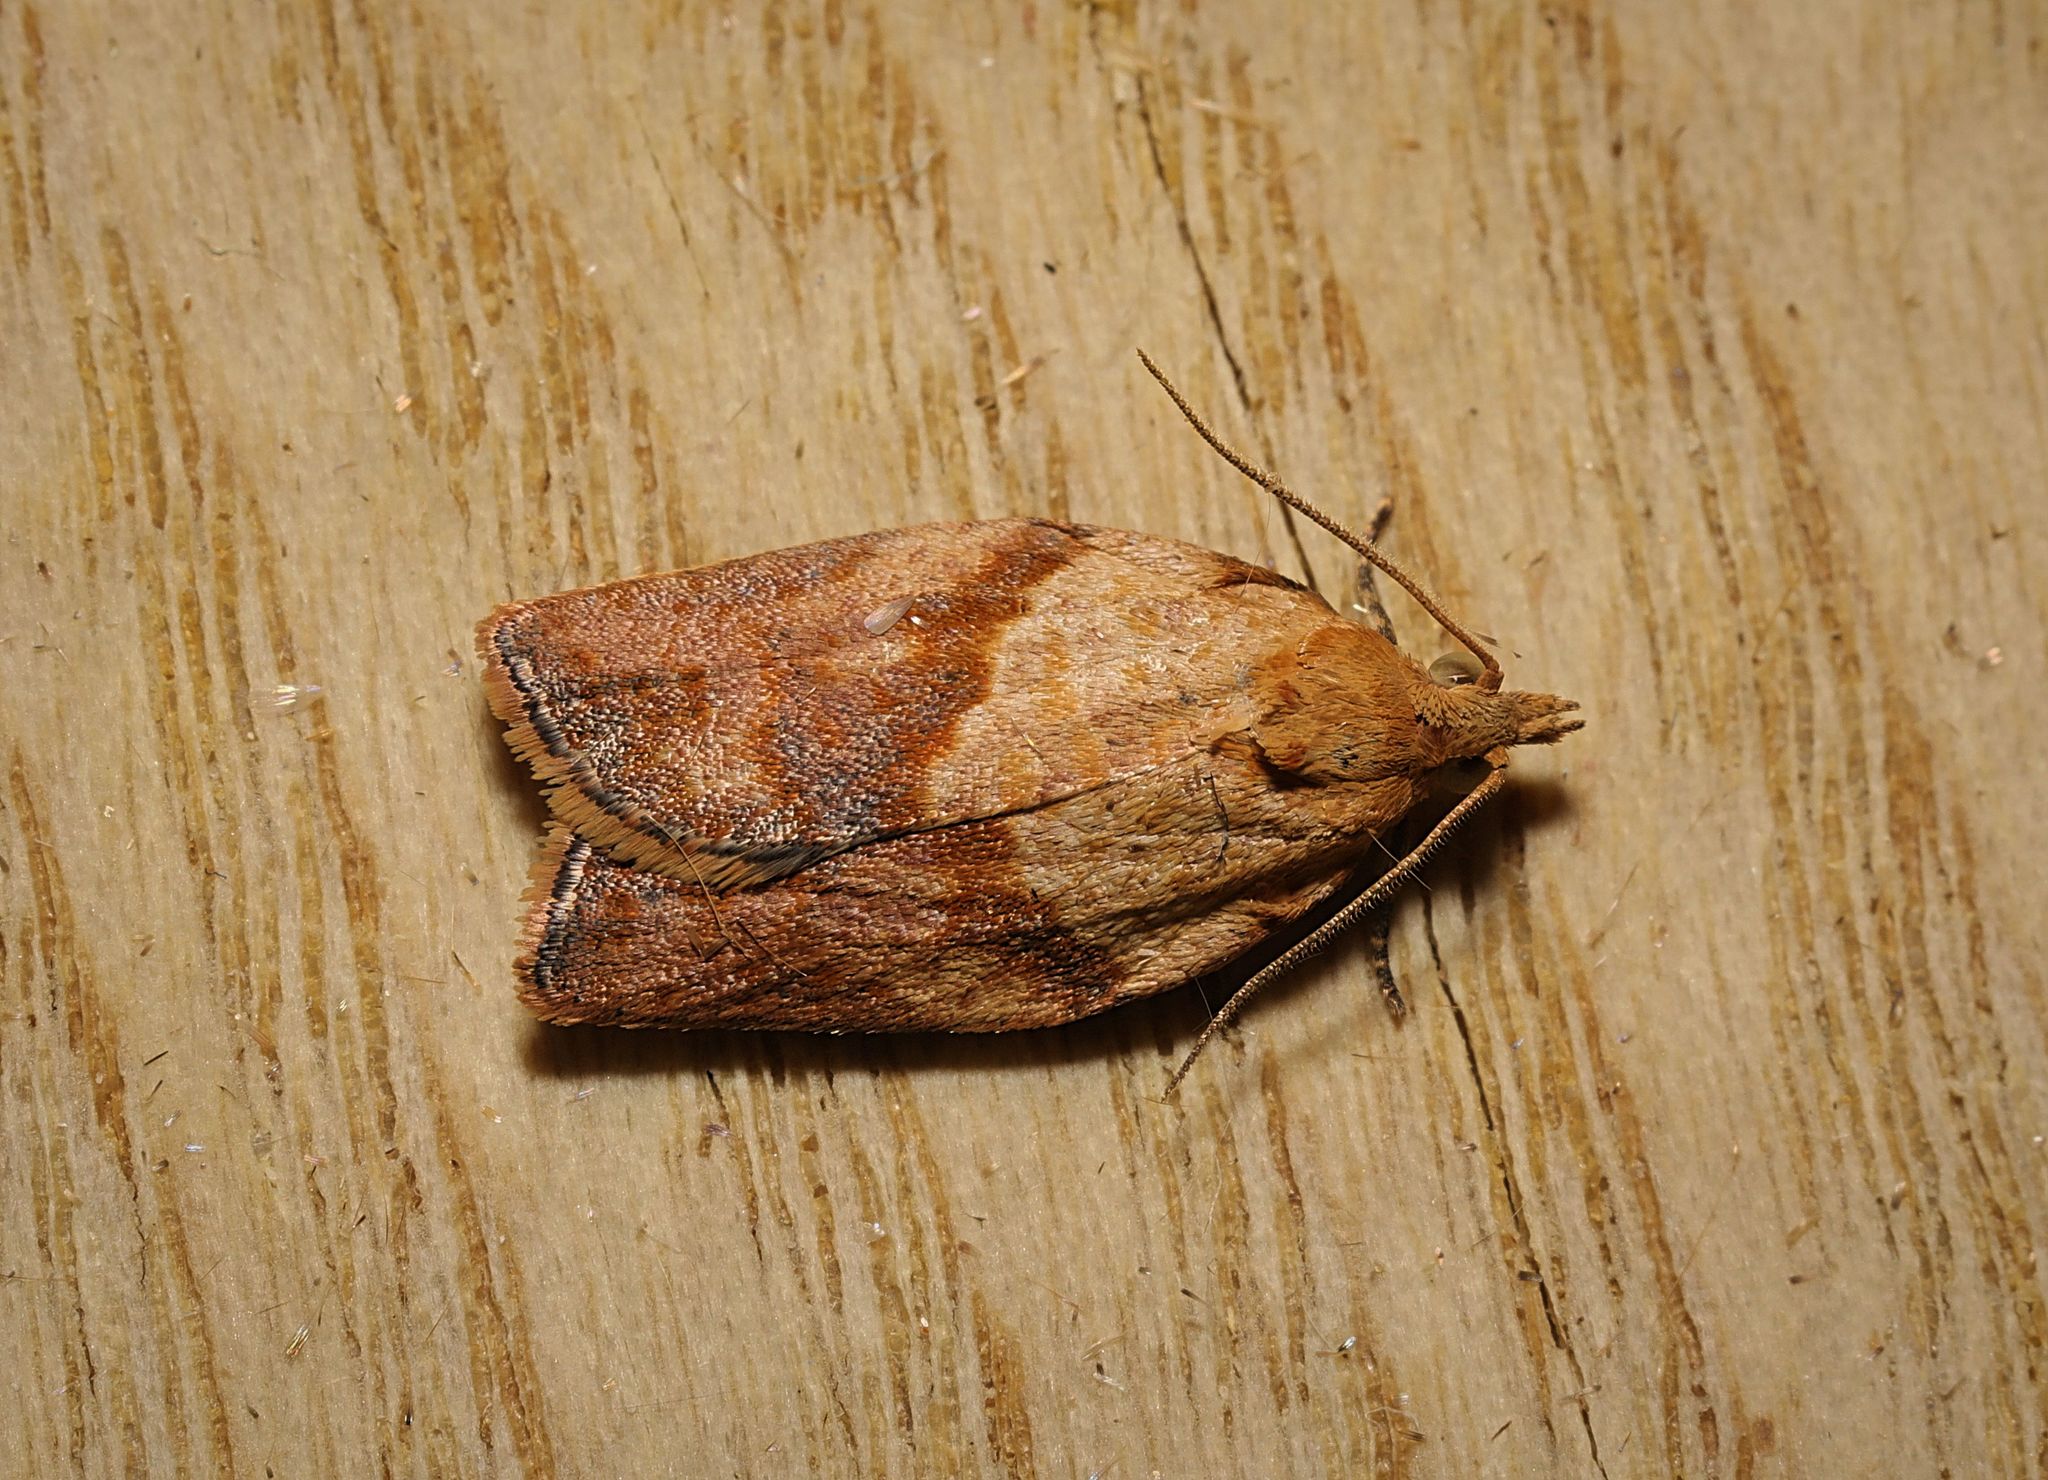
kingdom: Animalia
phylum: Arthropoda
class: Insecta
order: Lepidoptera
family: Tortricidae
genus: Epiphyas
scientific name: Epiphyas postvittana
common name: Light brown apple moth
